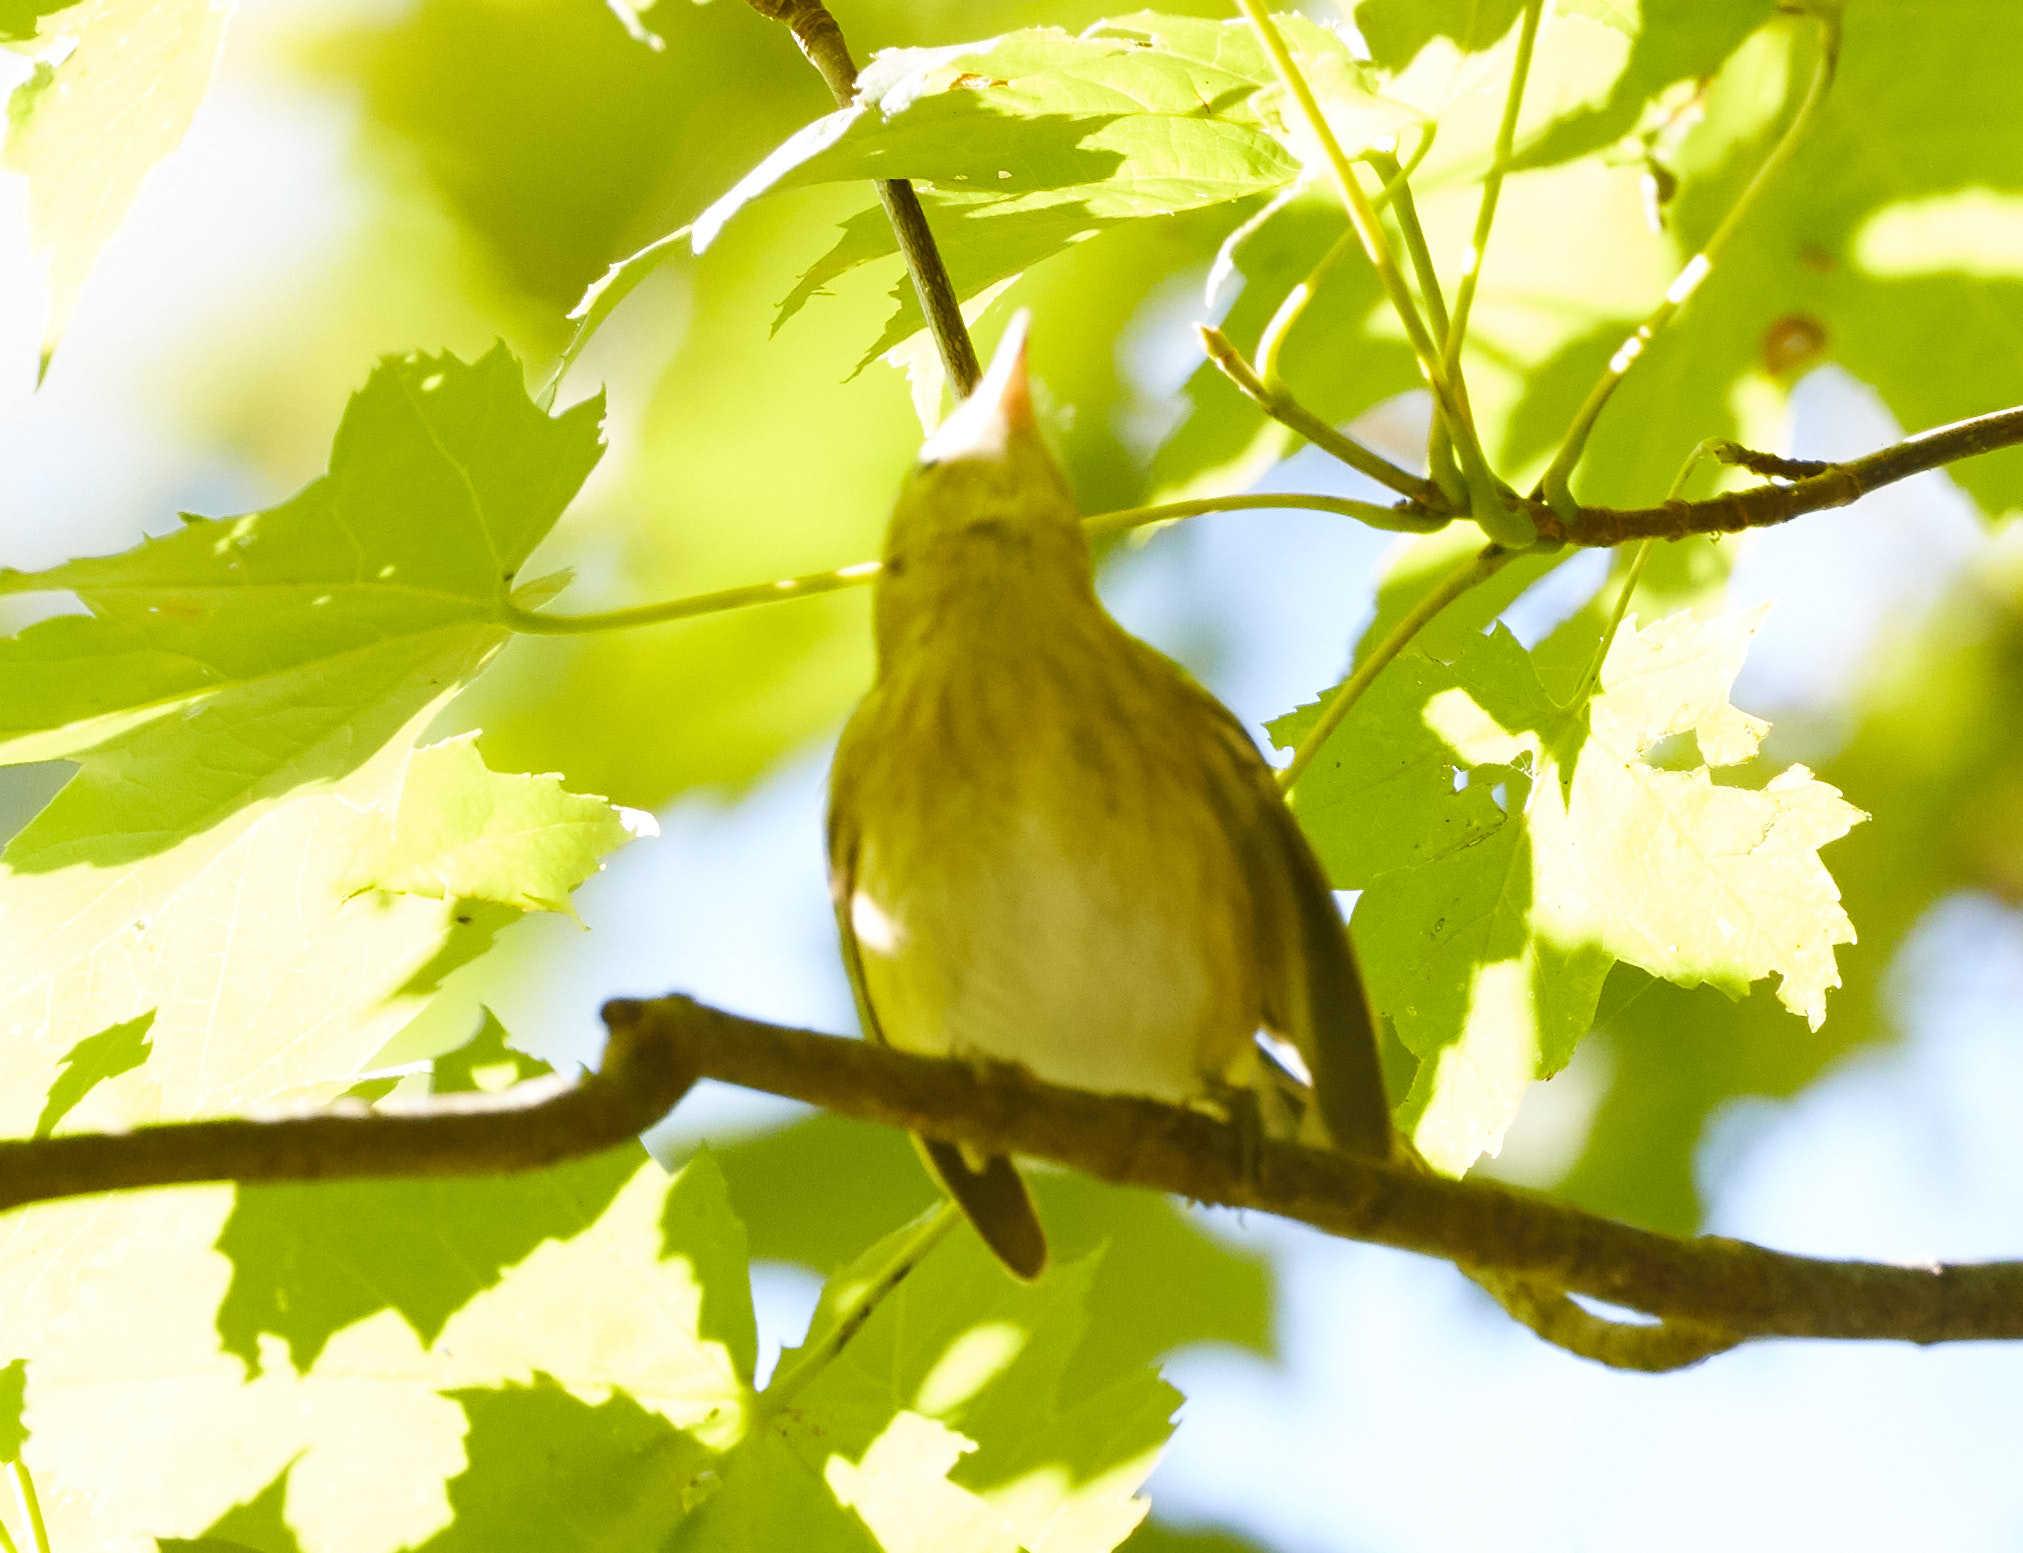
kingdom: Animalia
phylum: Chordata
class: Aves
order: Passeriformes
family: Parulidae
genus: Setophaga
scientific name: Setophaga striata
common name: Blackpoll warbler
